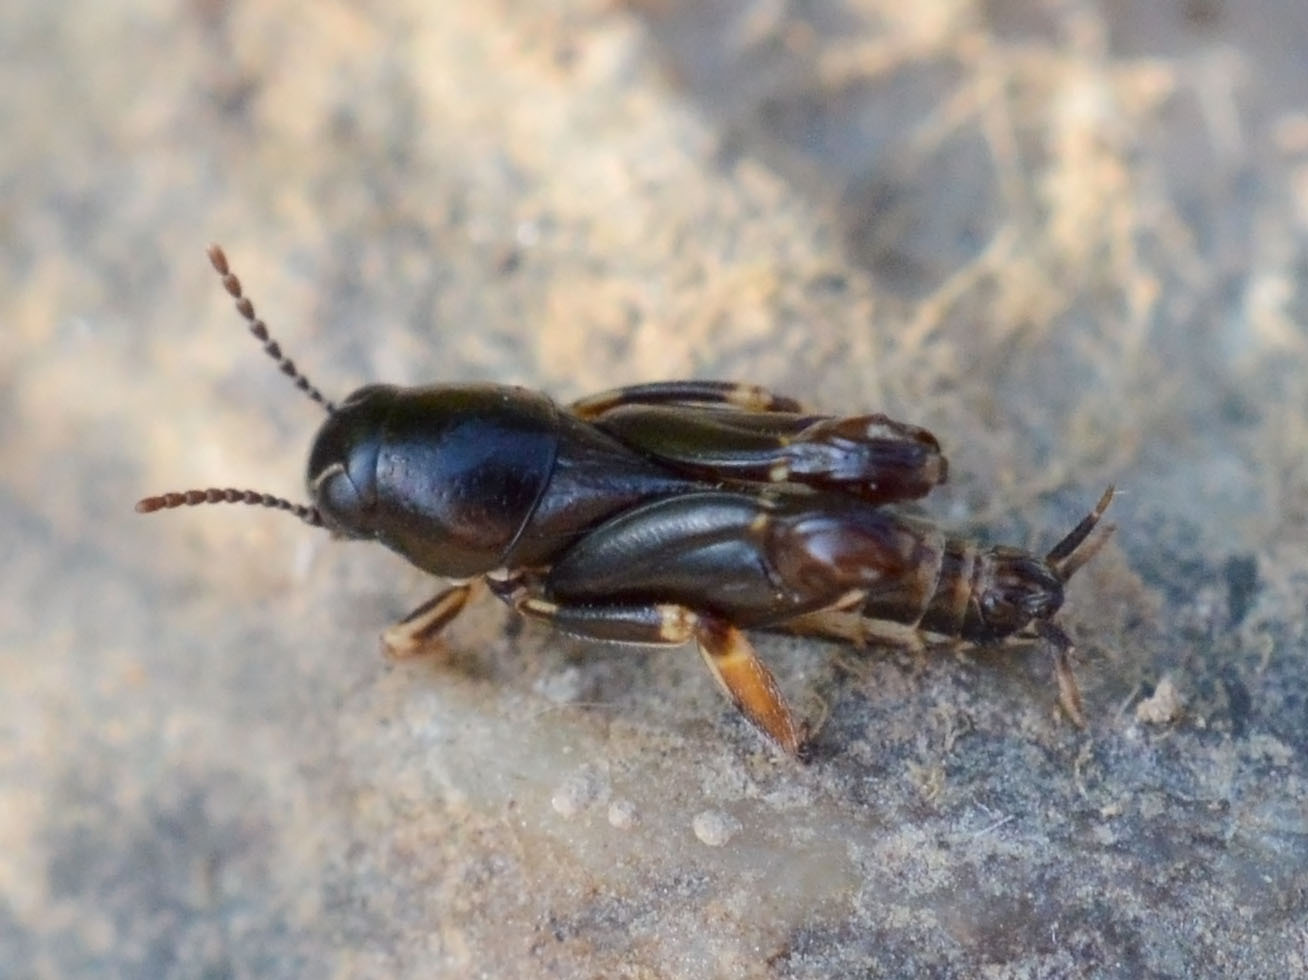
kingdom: Animalia
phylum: Arthropoda
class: Insecta
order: Orthoptera
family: Tridactylidae
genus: Xya
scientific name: Xya pfaendleri
